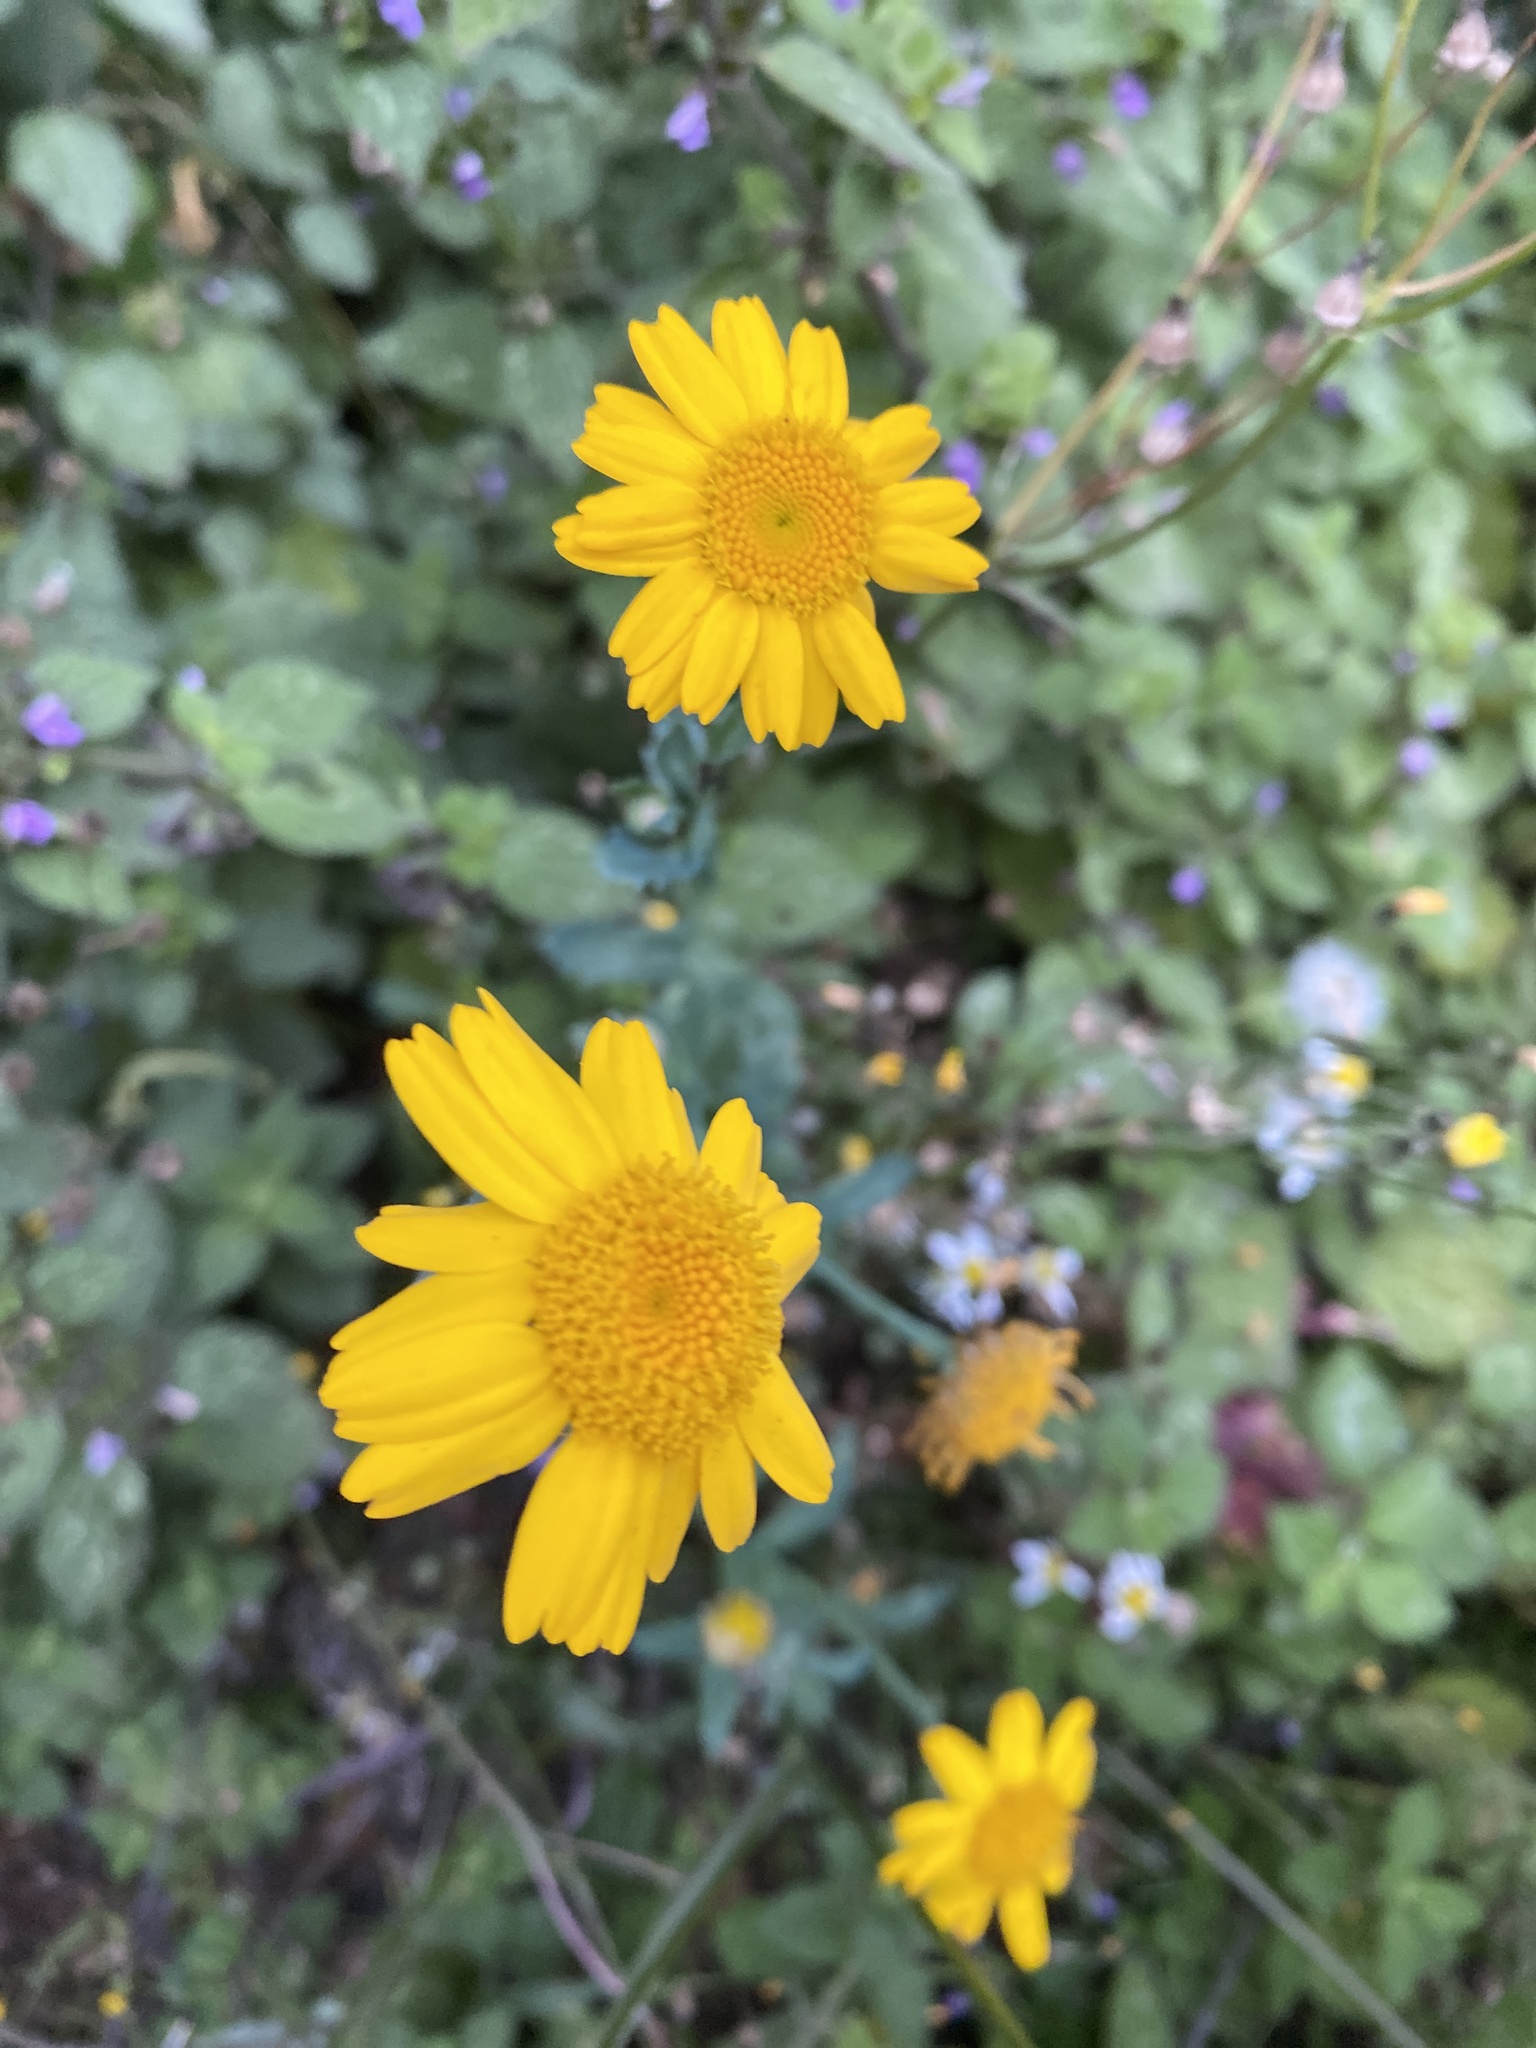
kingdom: Plantae
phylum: Tracheophyta
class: Magnoliopsida
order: Asterales
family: Asteraceae
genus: Glebionis
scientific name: Glebionis segetum
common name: Corndaisy
